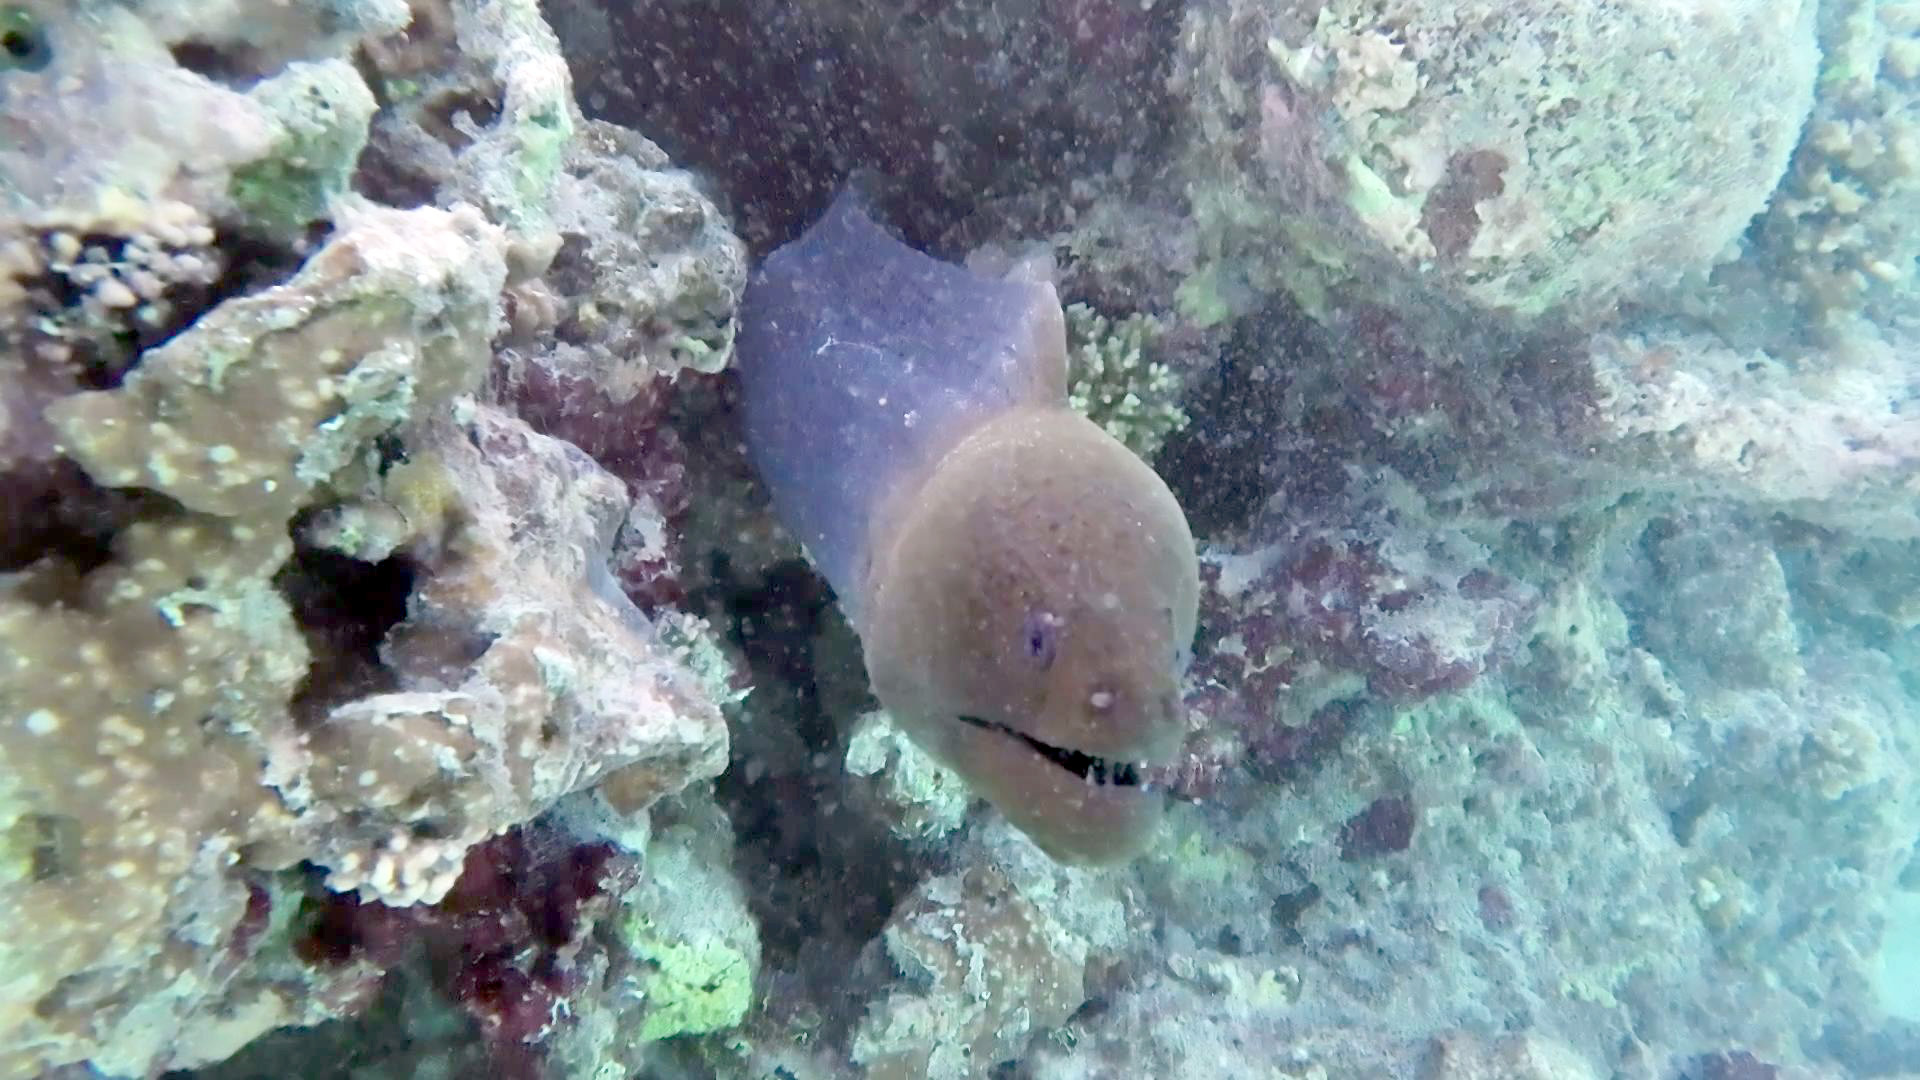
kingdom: Animalia
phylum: Chordata
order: Anguilliformes
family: Muraenidae
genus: Gymnothorax
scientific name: Gymnothorax javanicus
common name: Giant moray
